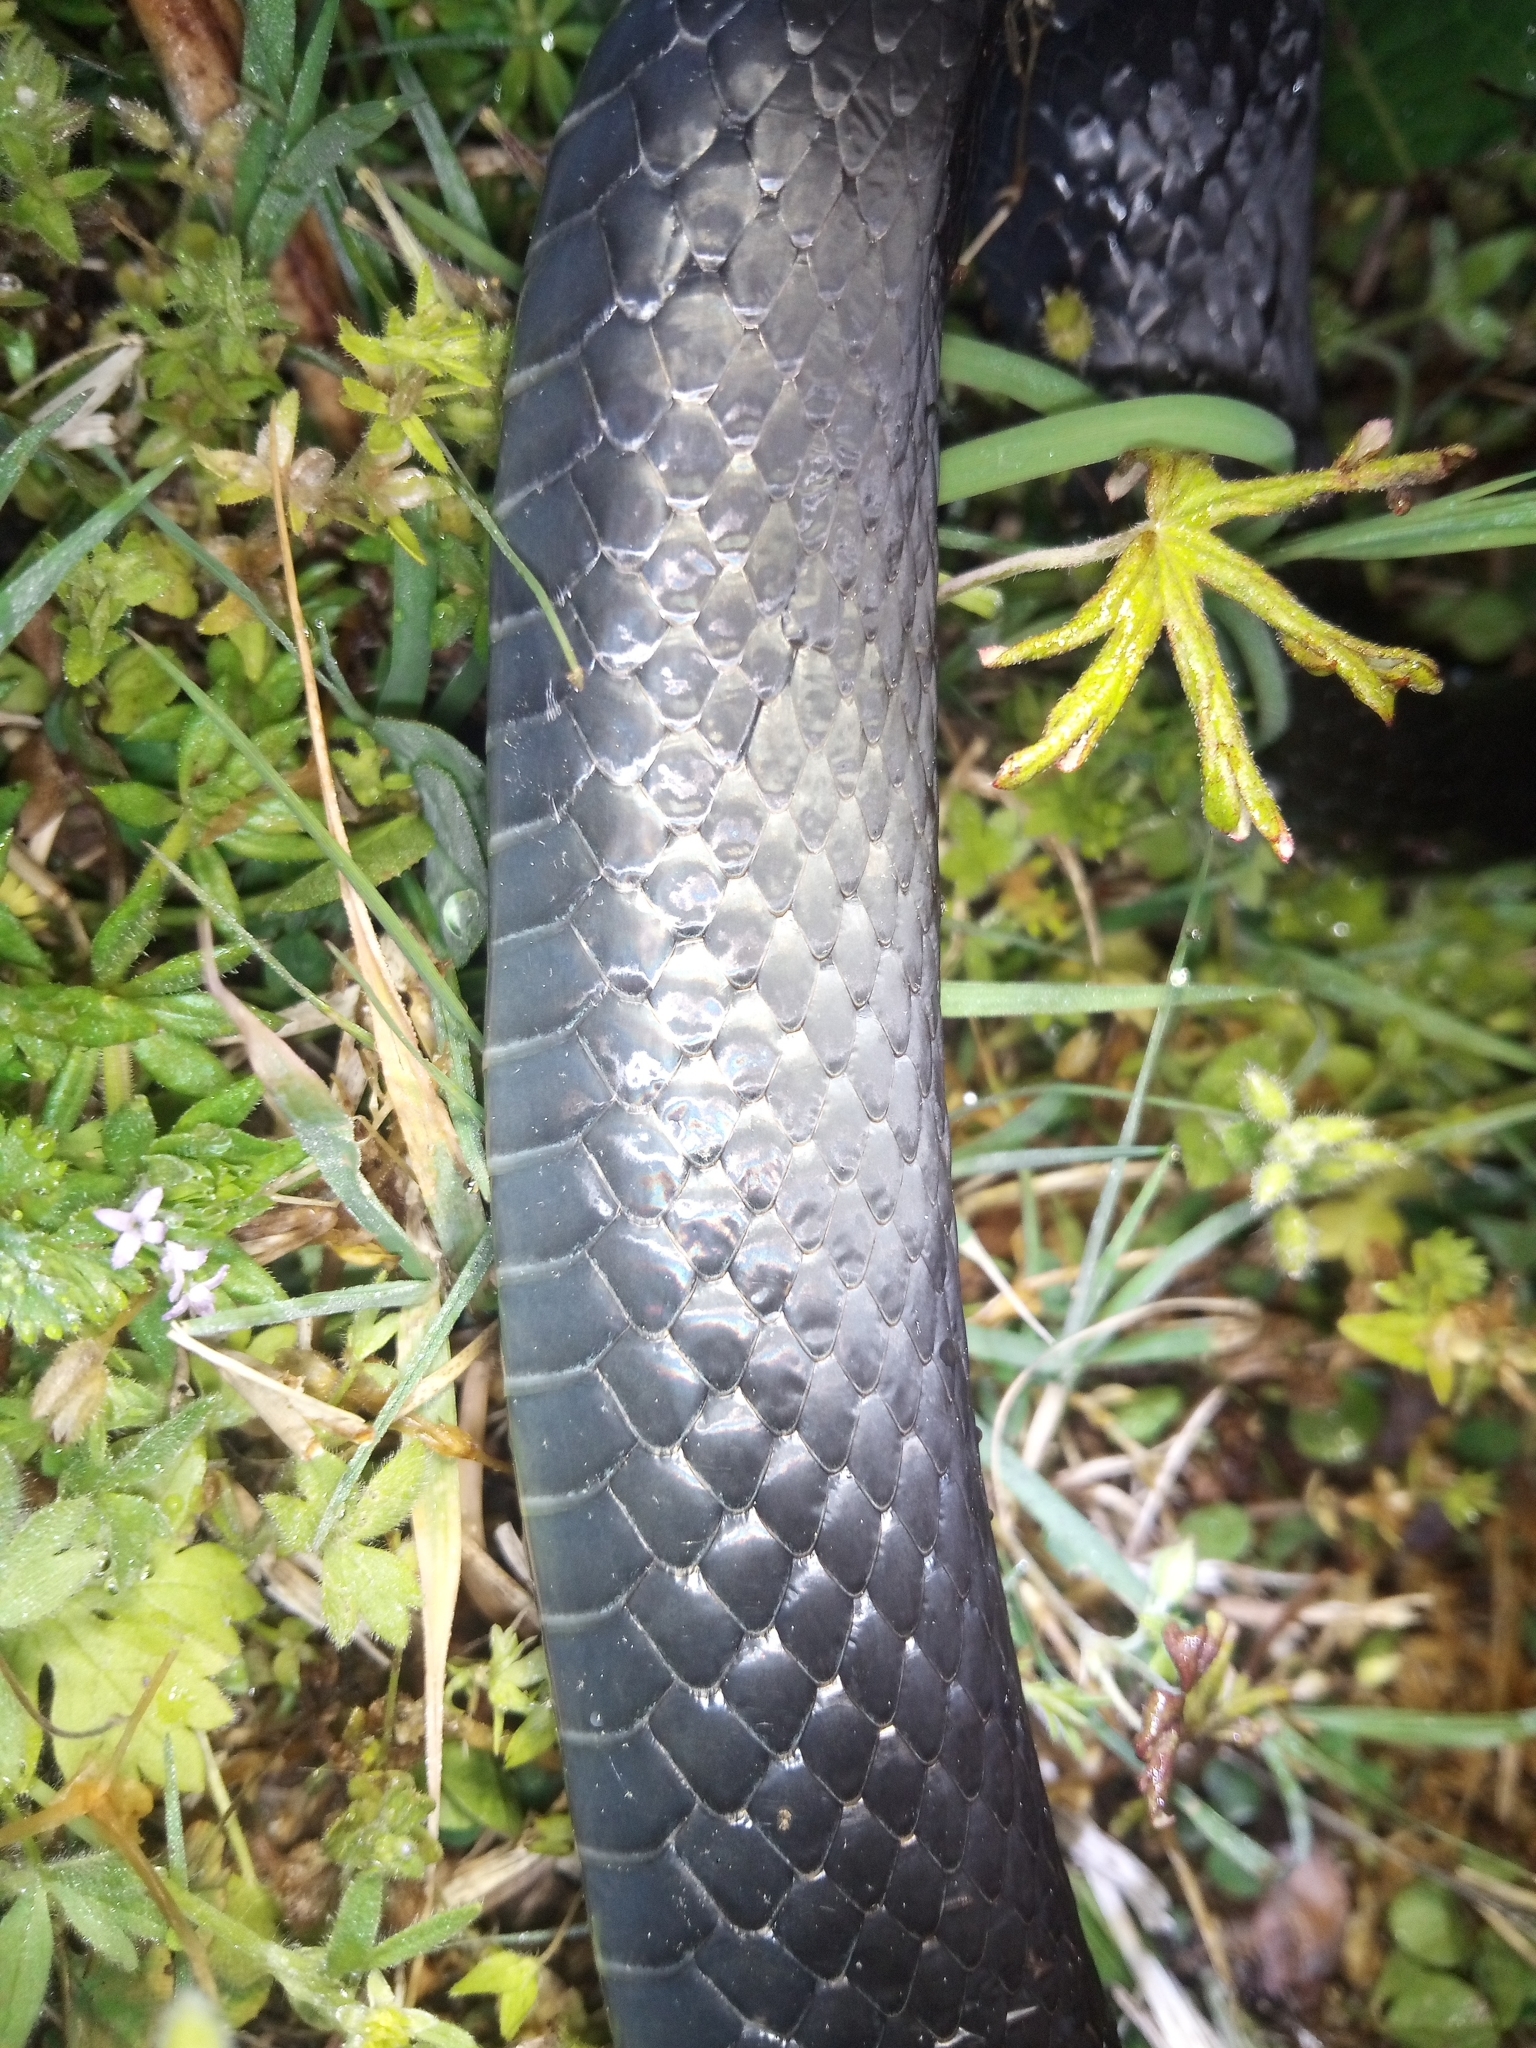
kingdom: Animalia
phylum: Chordata
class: Squamata
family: Colubridae
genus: Coluber
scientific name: Coluber constrictor
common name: Eastern racer
